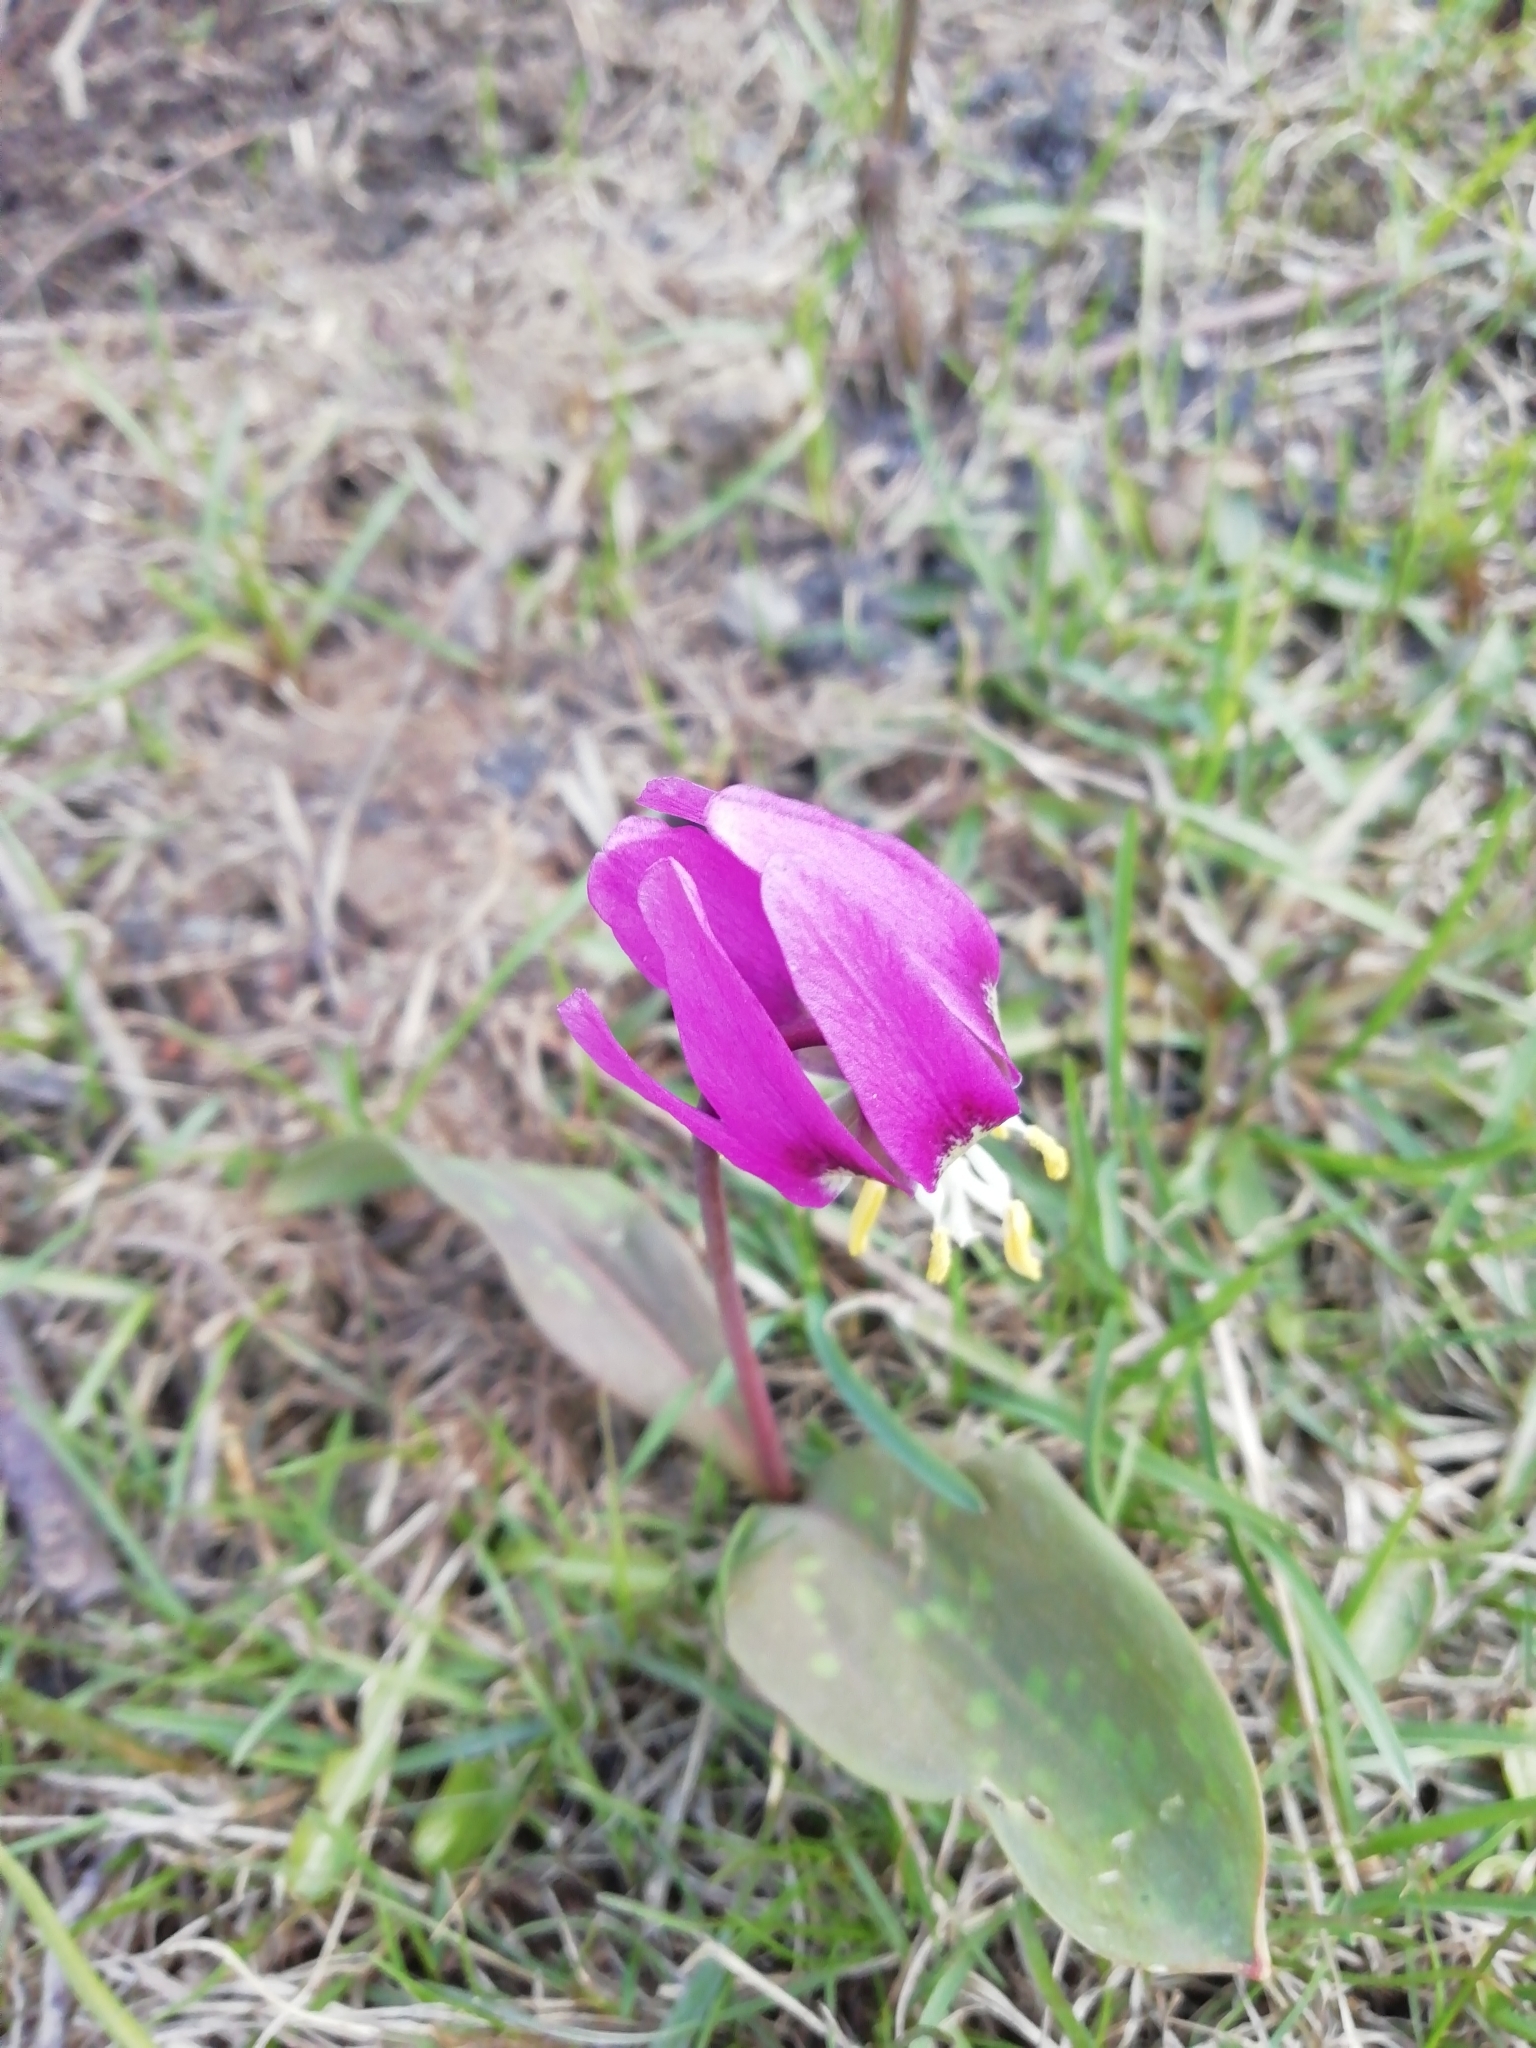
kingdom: Plantae
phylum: Tracheophyta
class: Liliopsida
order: Liliales
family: Liliaceae
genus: Erythronium
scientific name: Erythronium sibiricum
